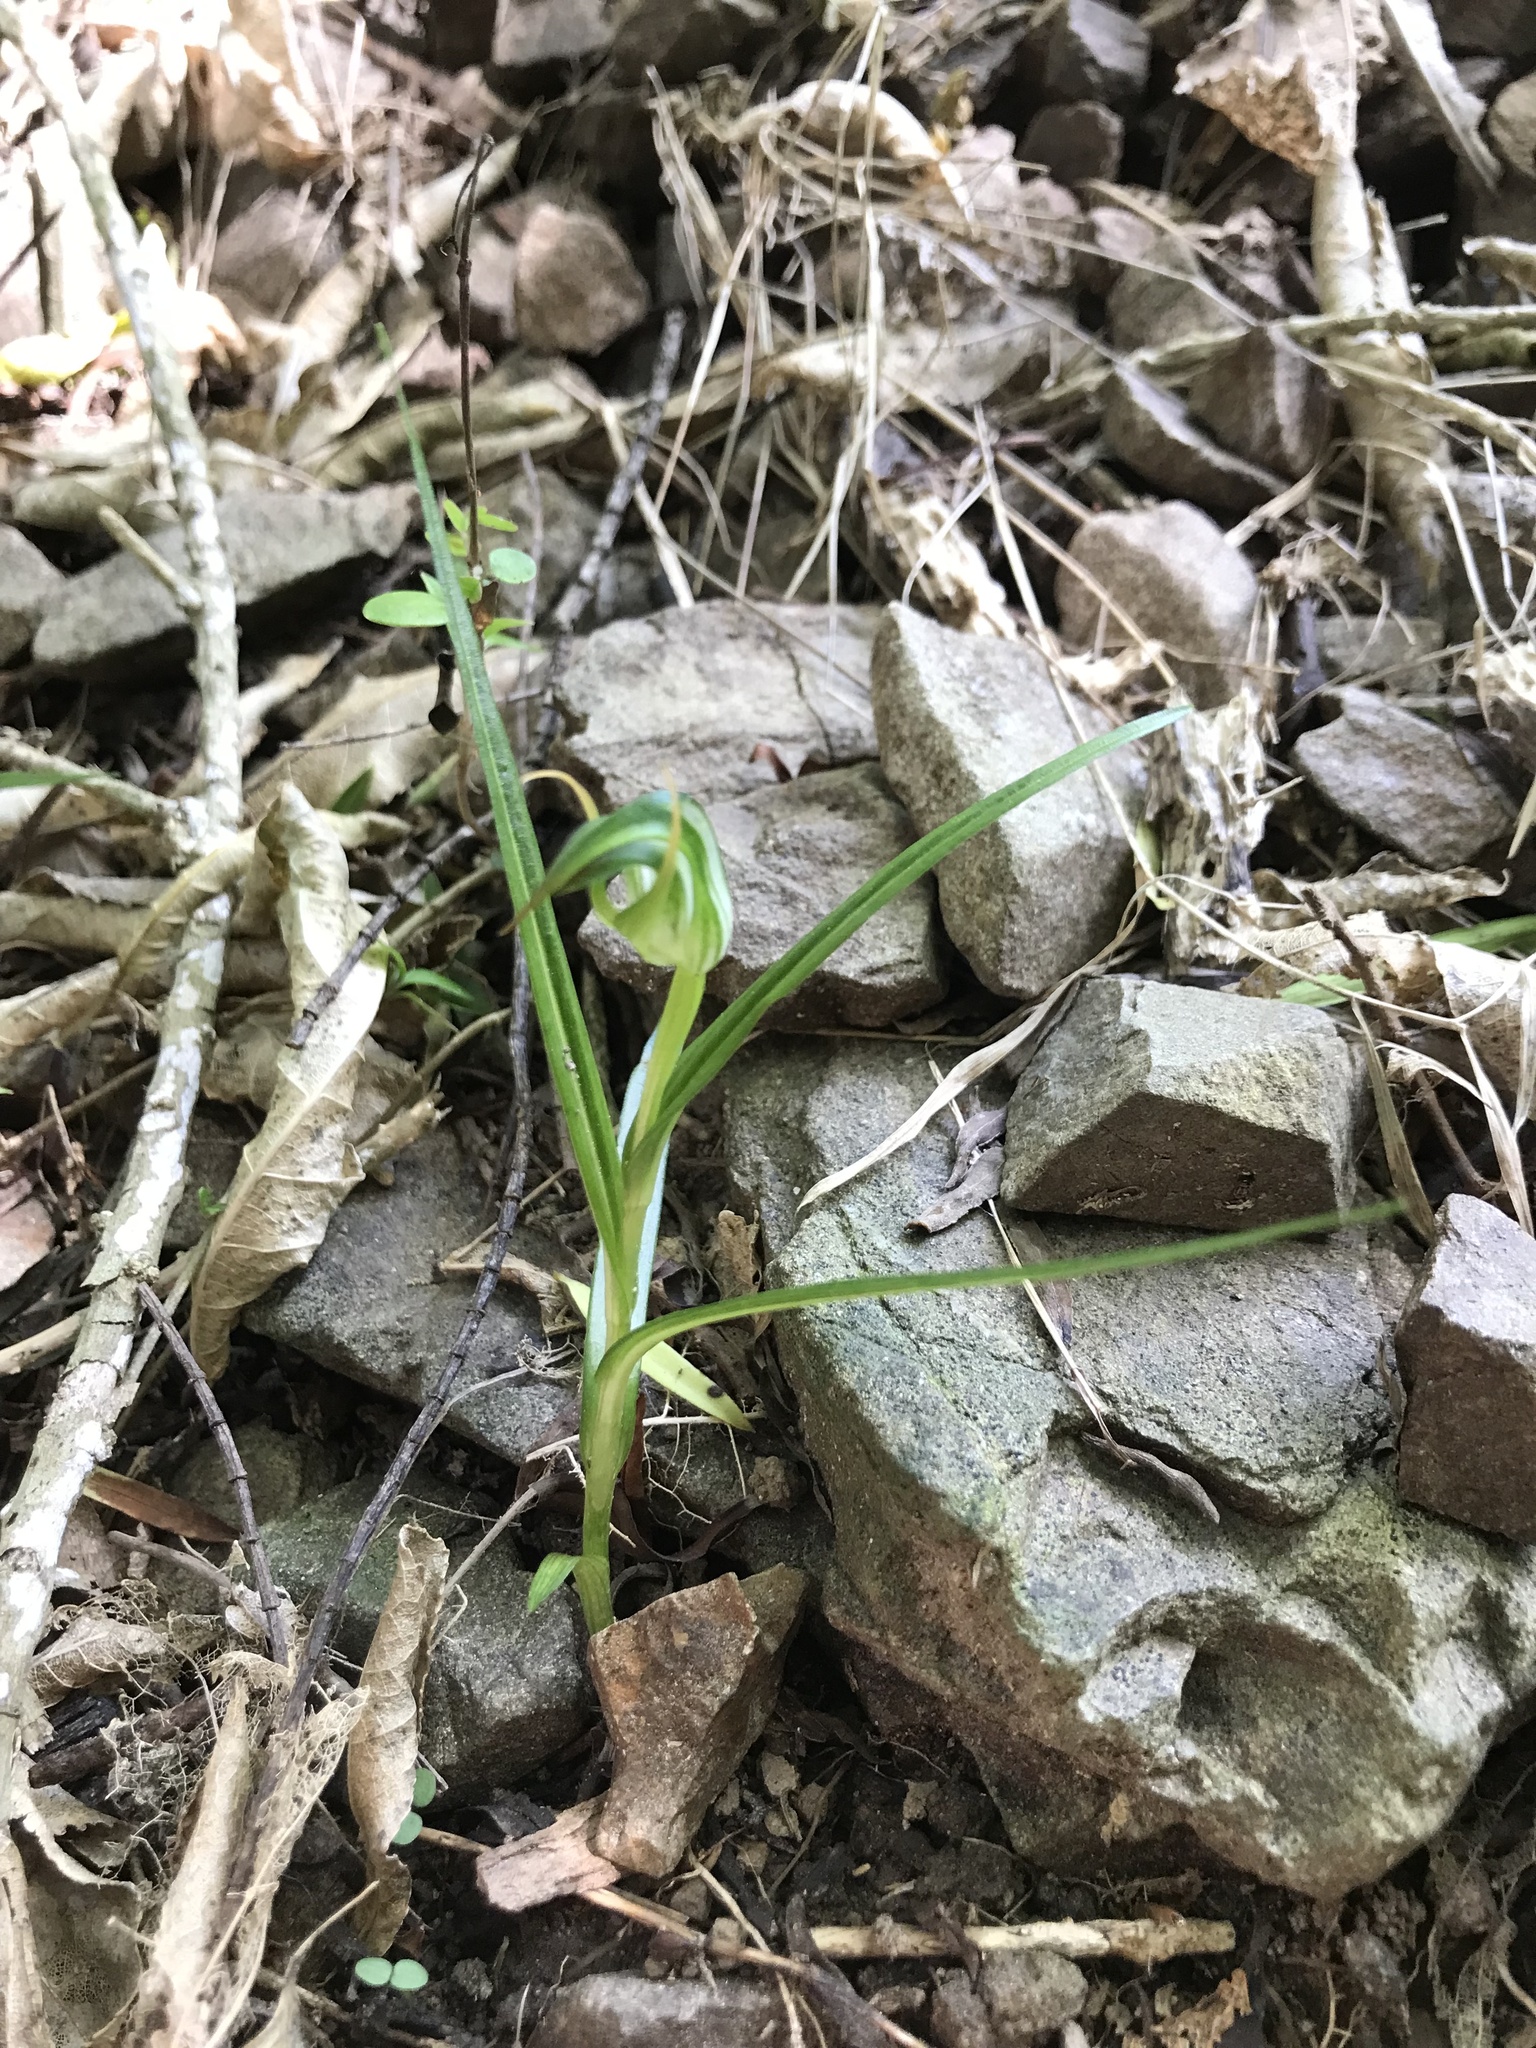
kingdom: Plantae
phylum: Tracheophyta
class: Liliopsida
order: Asparagales
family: Orchidaceae
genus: Pterostylis
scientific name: Pterostylis graminea
